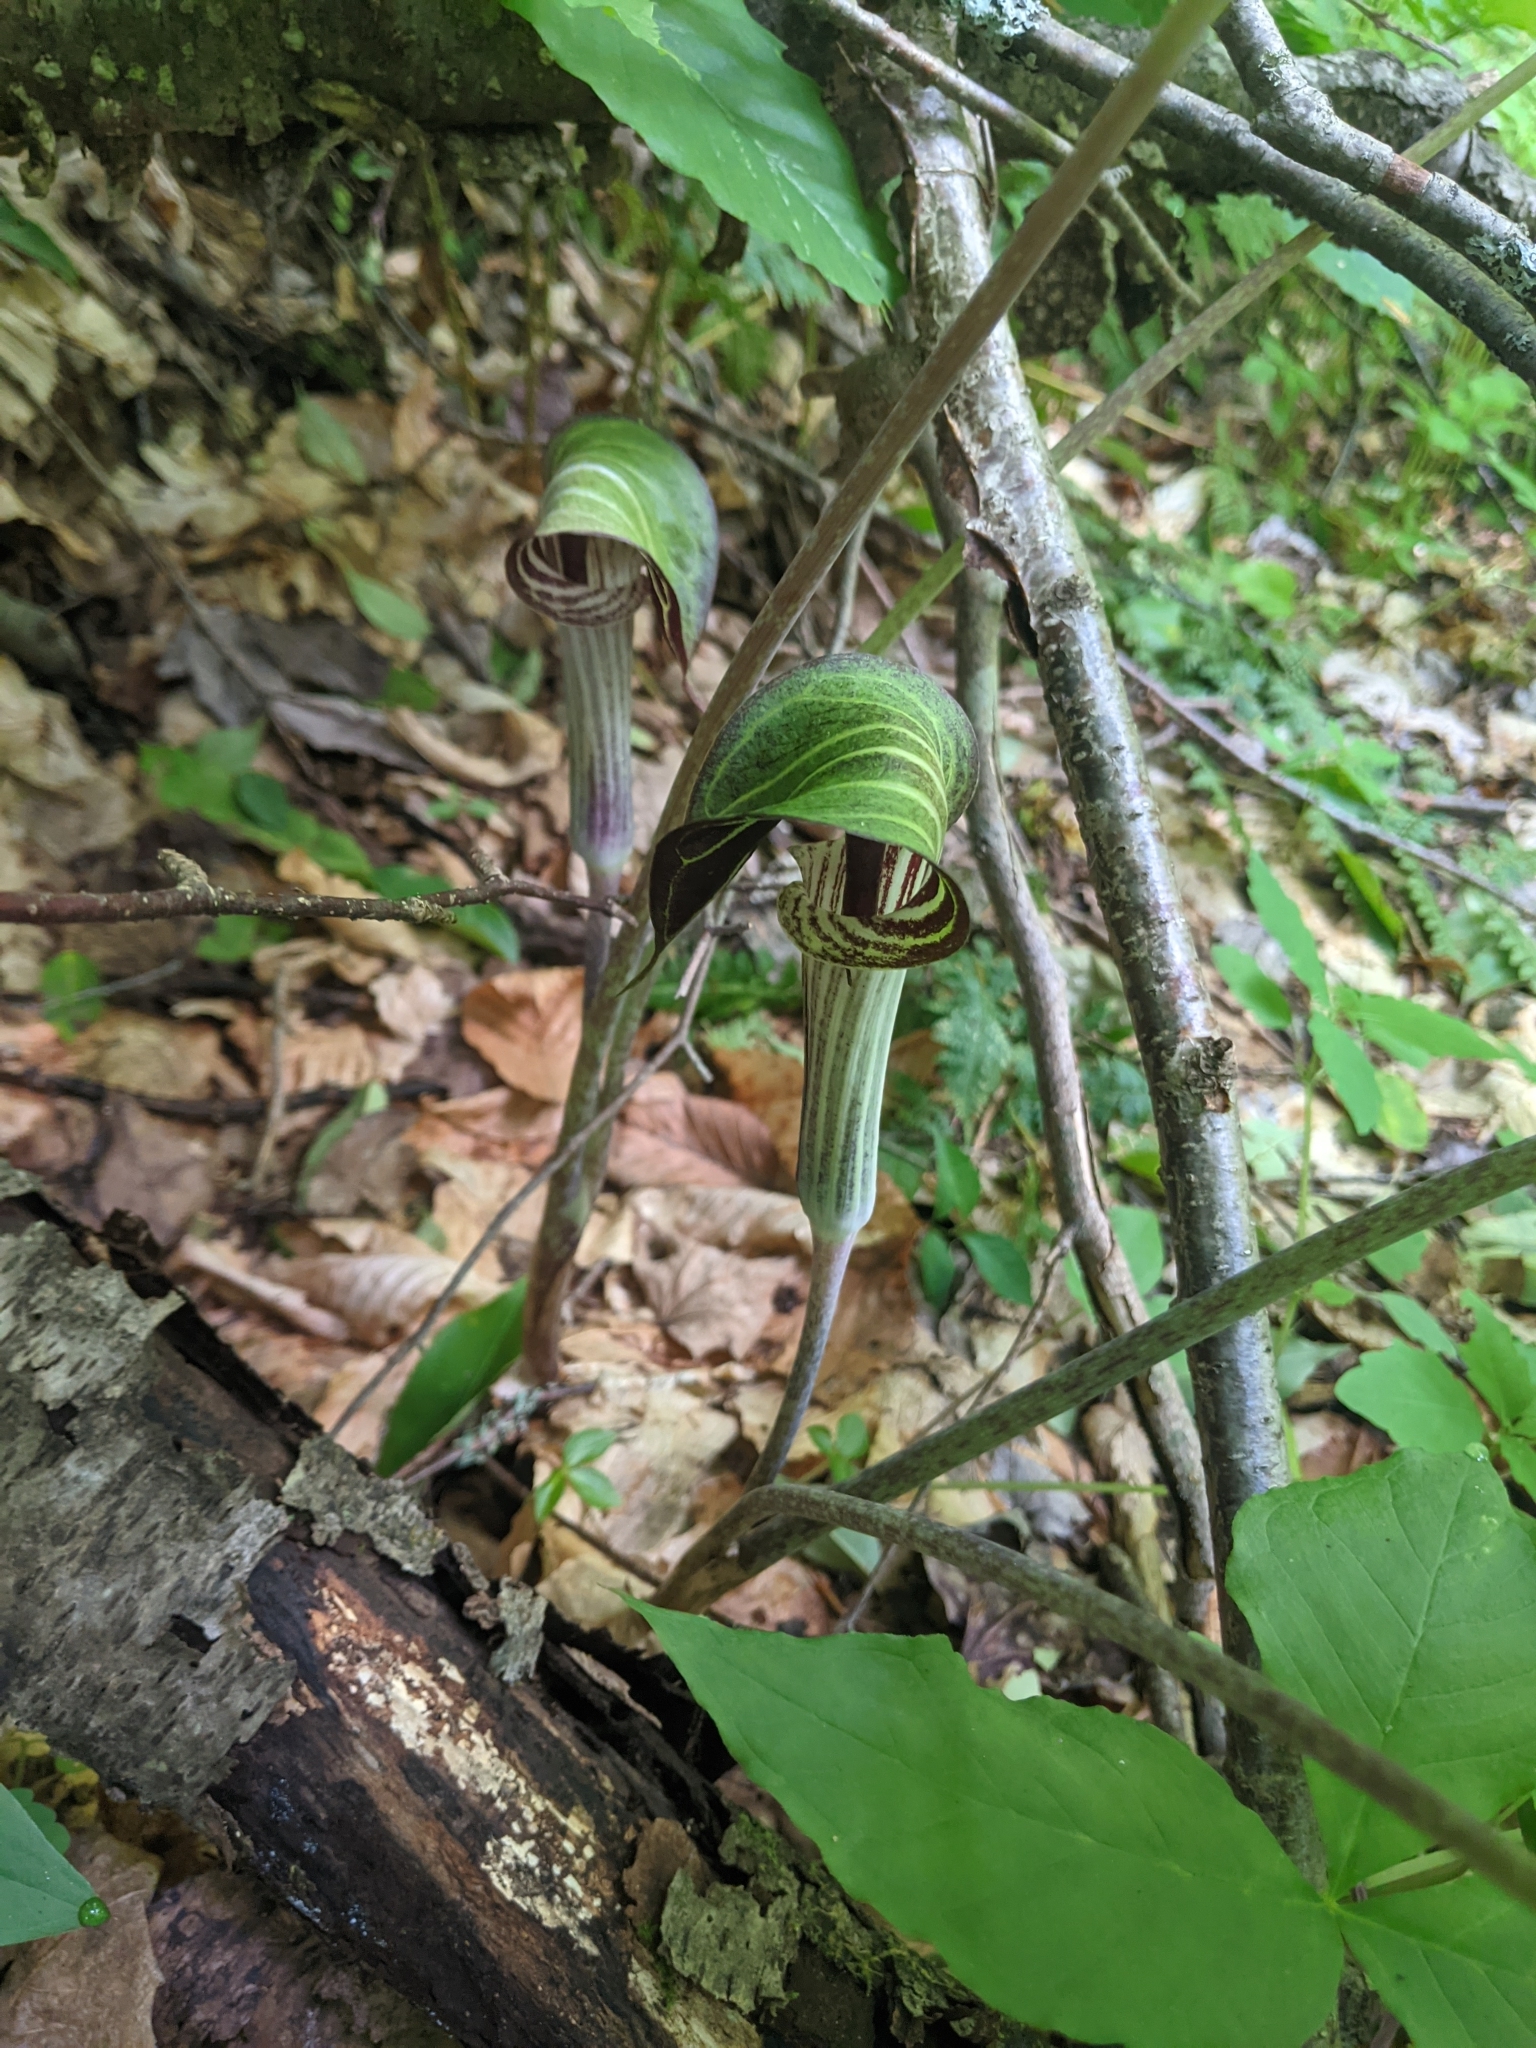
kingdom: Plantae
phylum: Tracheophyta
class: Liliopsida
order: Alismatales
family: Araceae
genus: Arisaema
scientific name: Arisaema triphyllum
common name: Jack-in-the-pulpit
